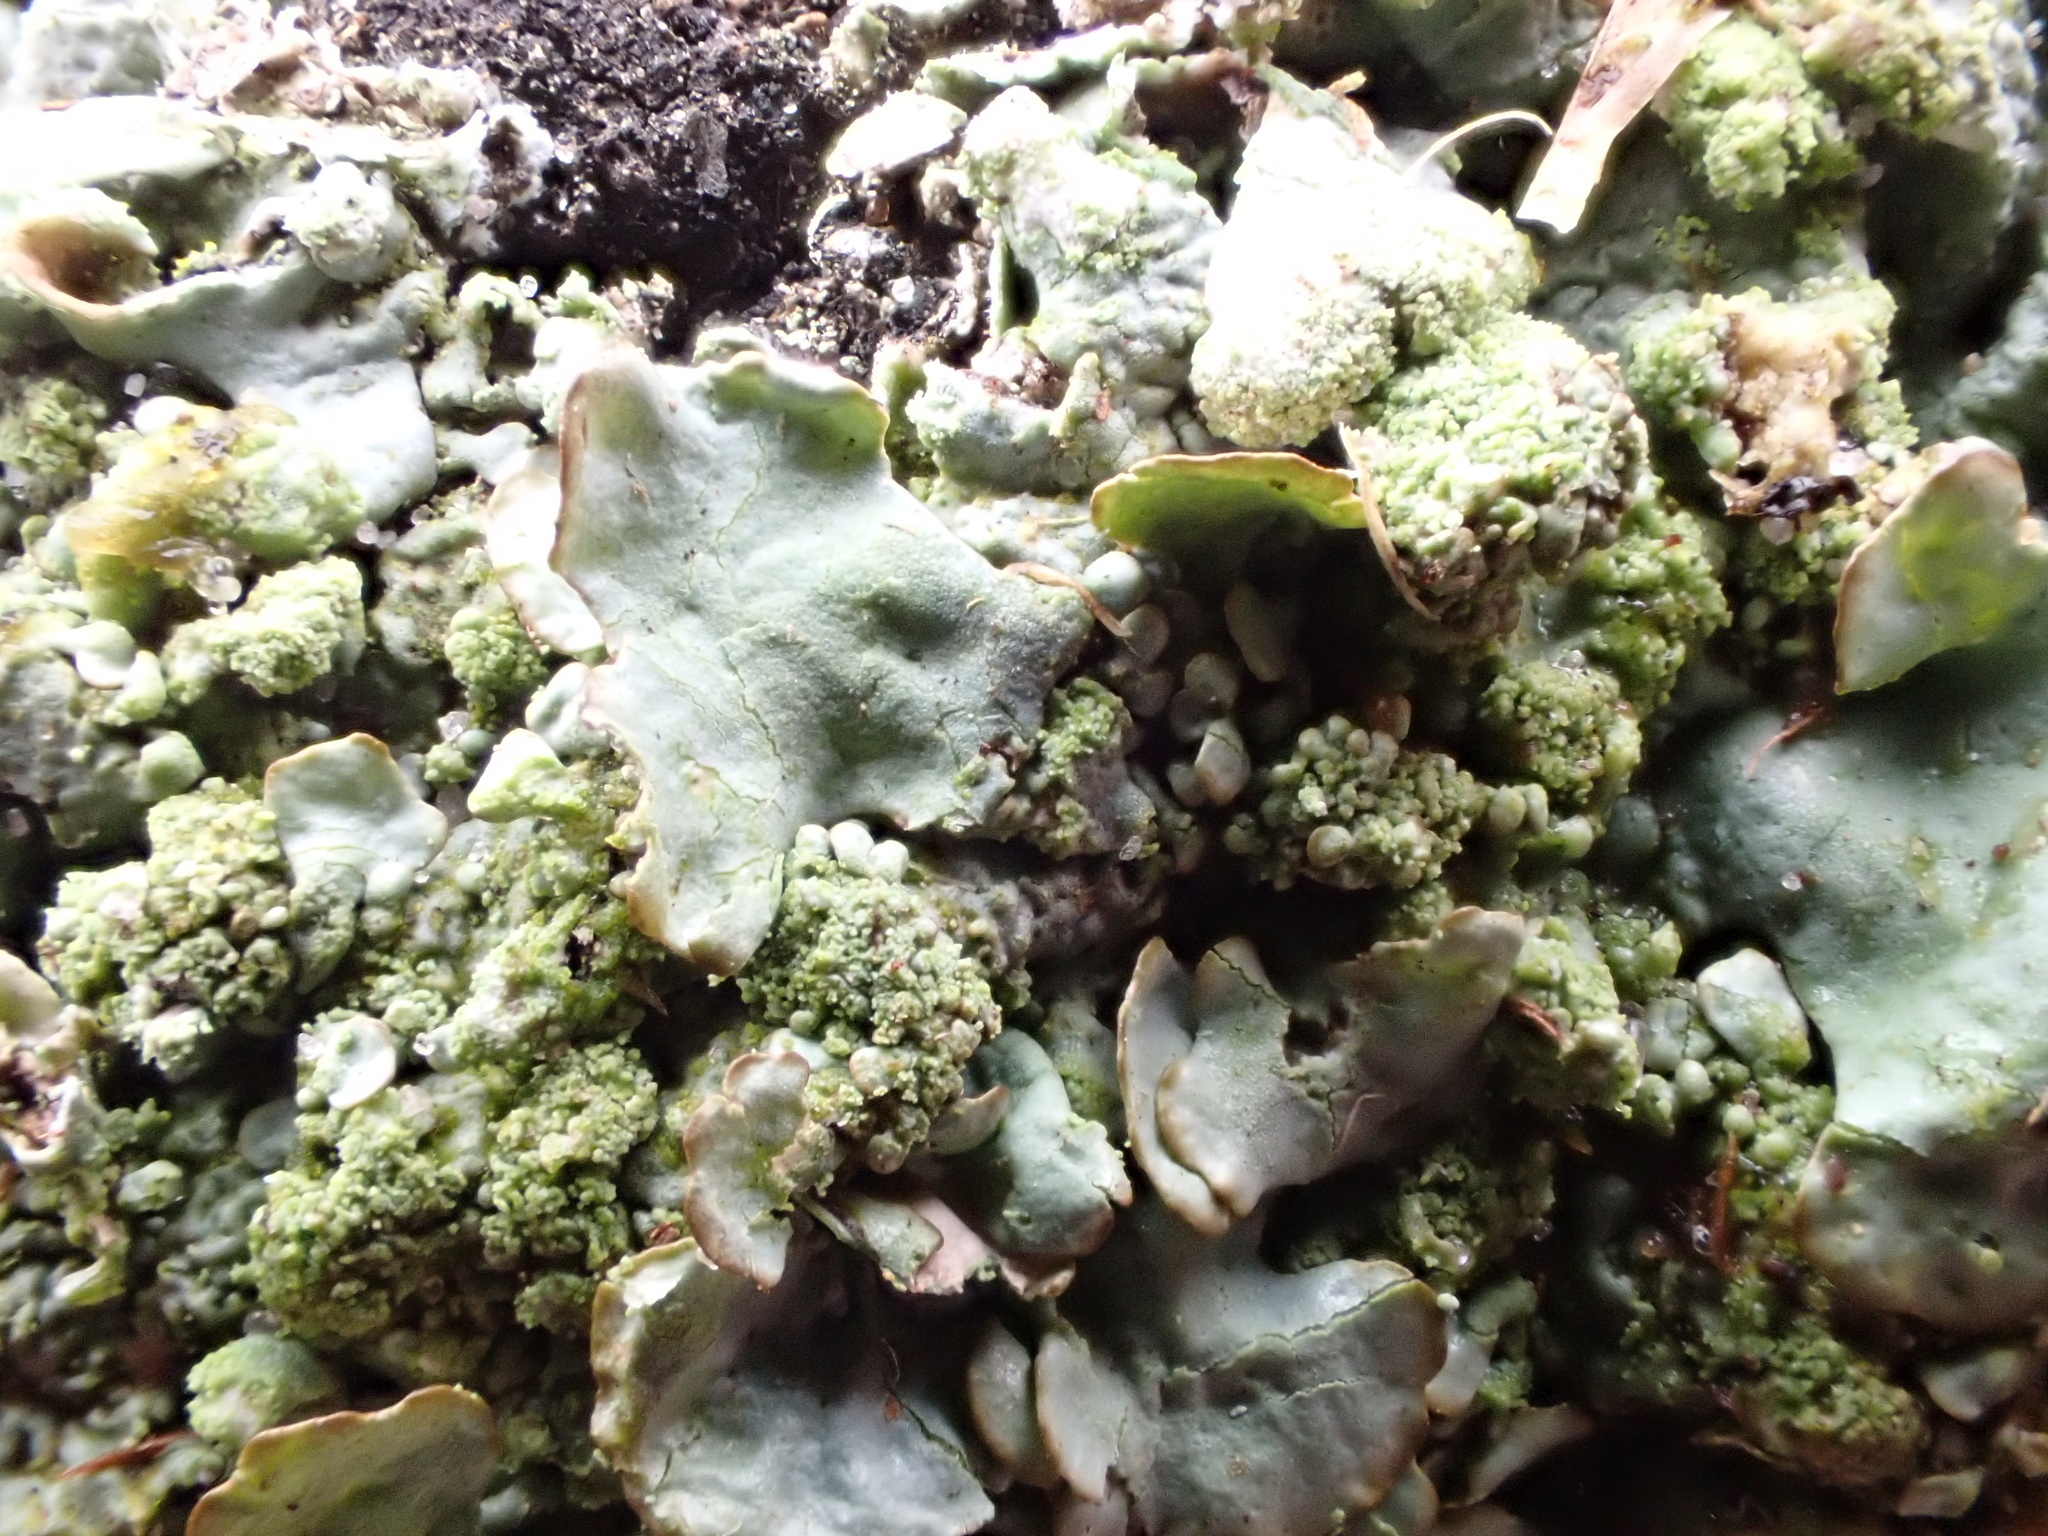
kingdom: Fungi
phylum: Ascomycota
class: Lecanoromycetes
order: Lecanorales
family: Parmeliaceae
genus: Hypotrachyna
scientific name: Hypotrachyna afrorevoluta
